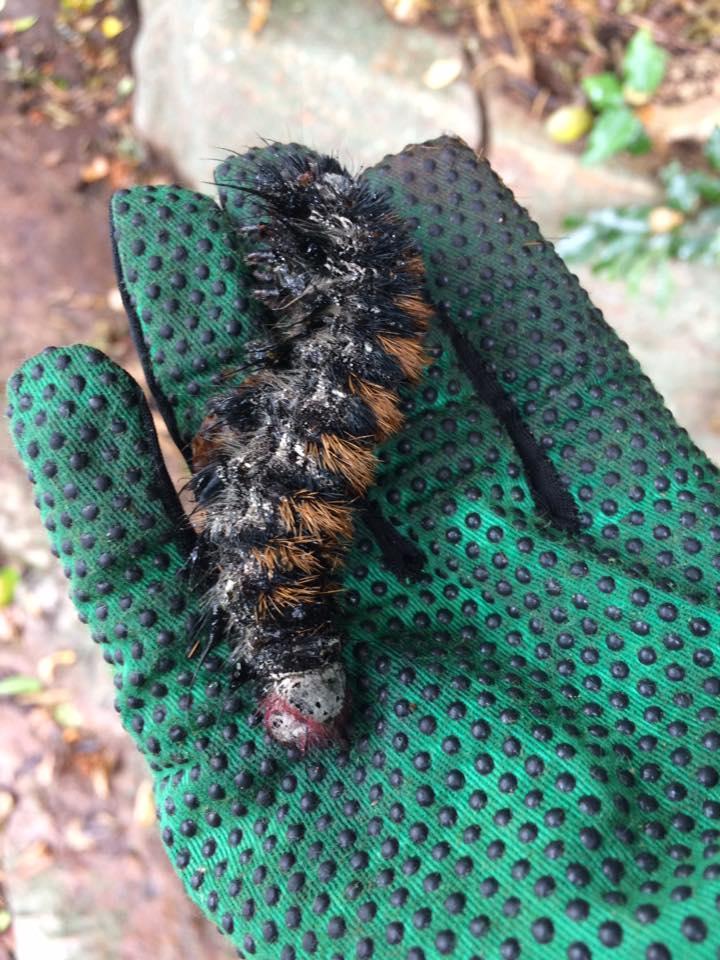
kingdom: Animalia
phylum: Arthropoda
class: Insecta
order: Lepidoptera
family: Lasiocampidae
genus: Catalebeda
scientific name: Catalebeda cuneilinea
